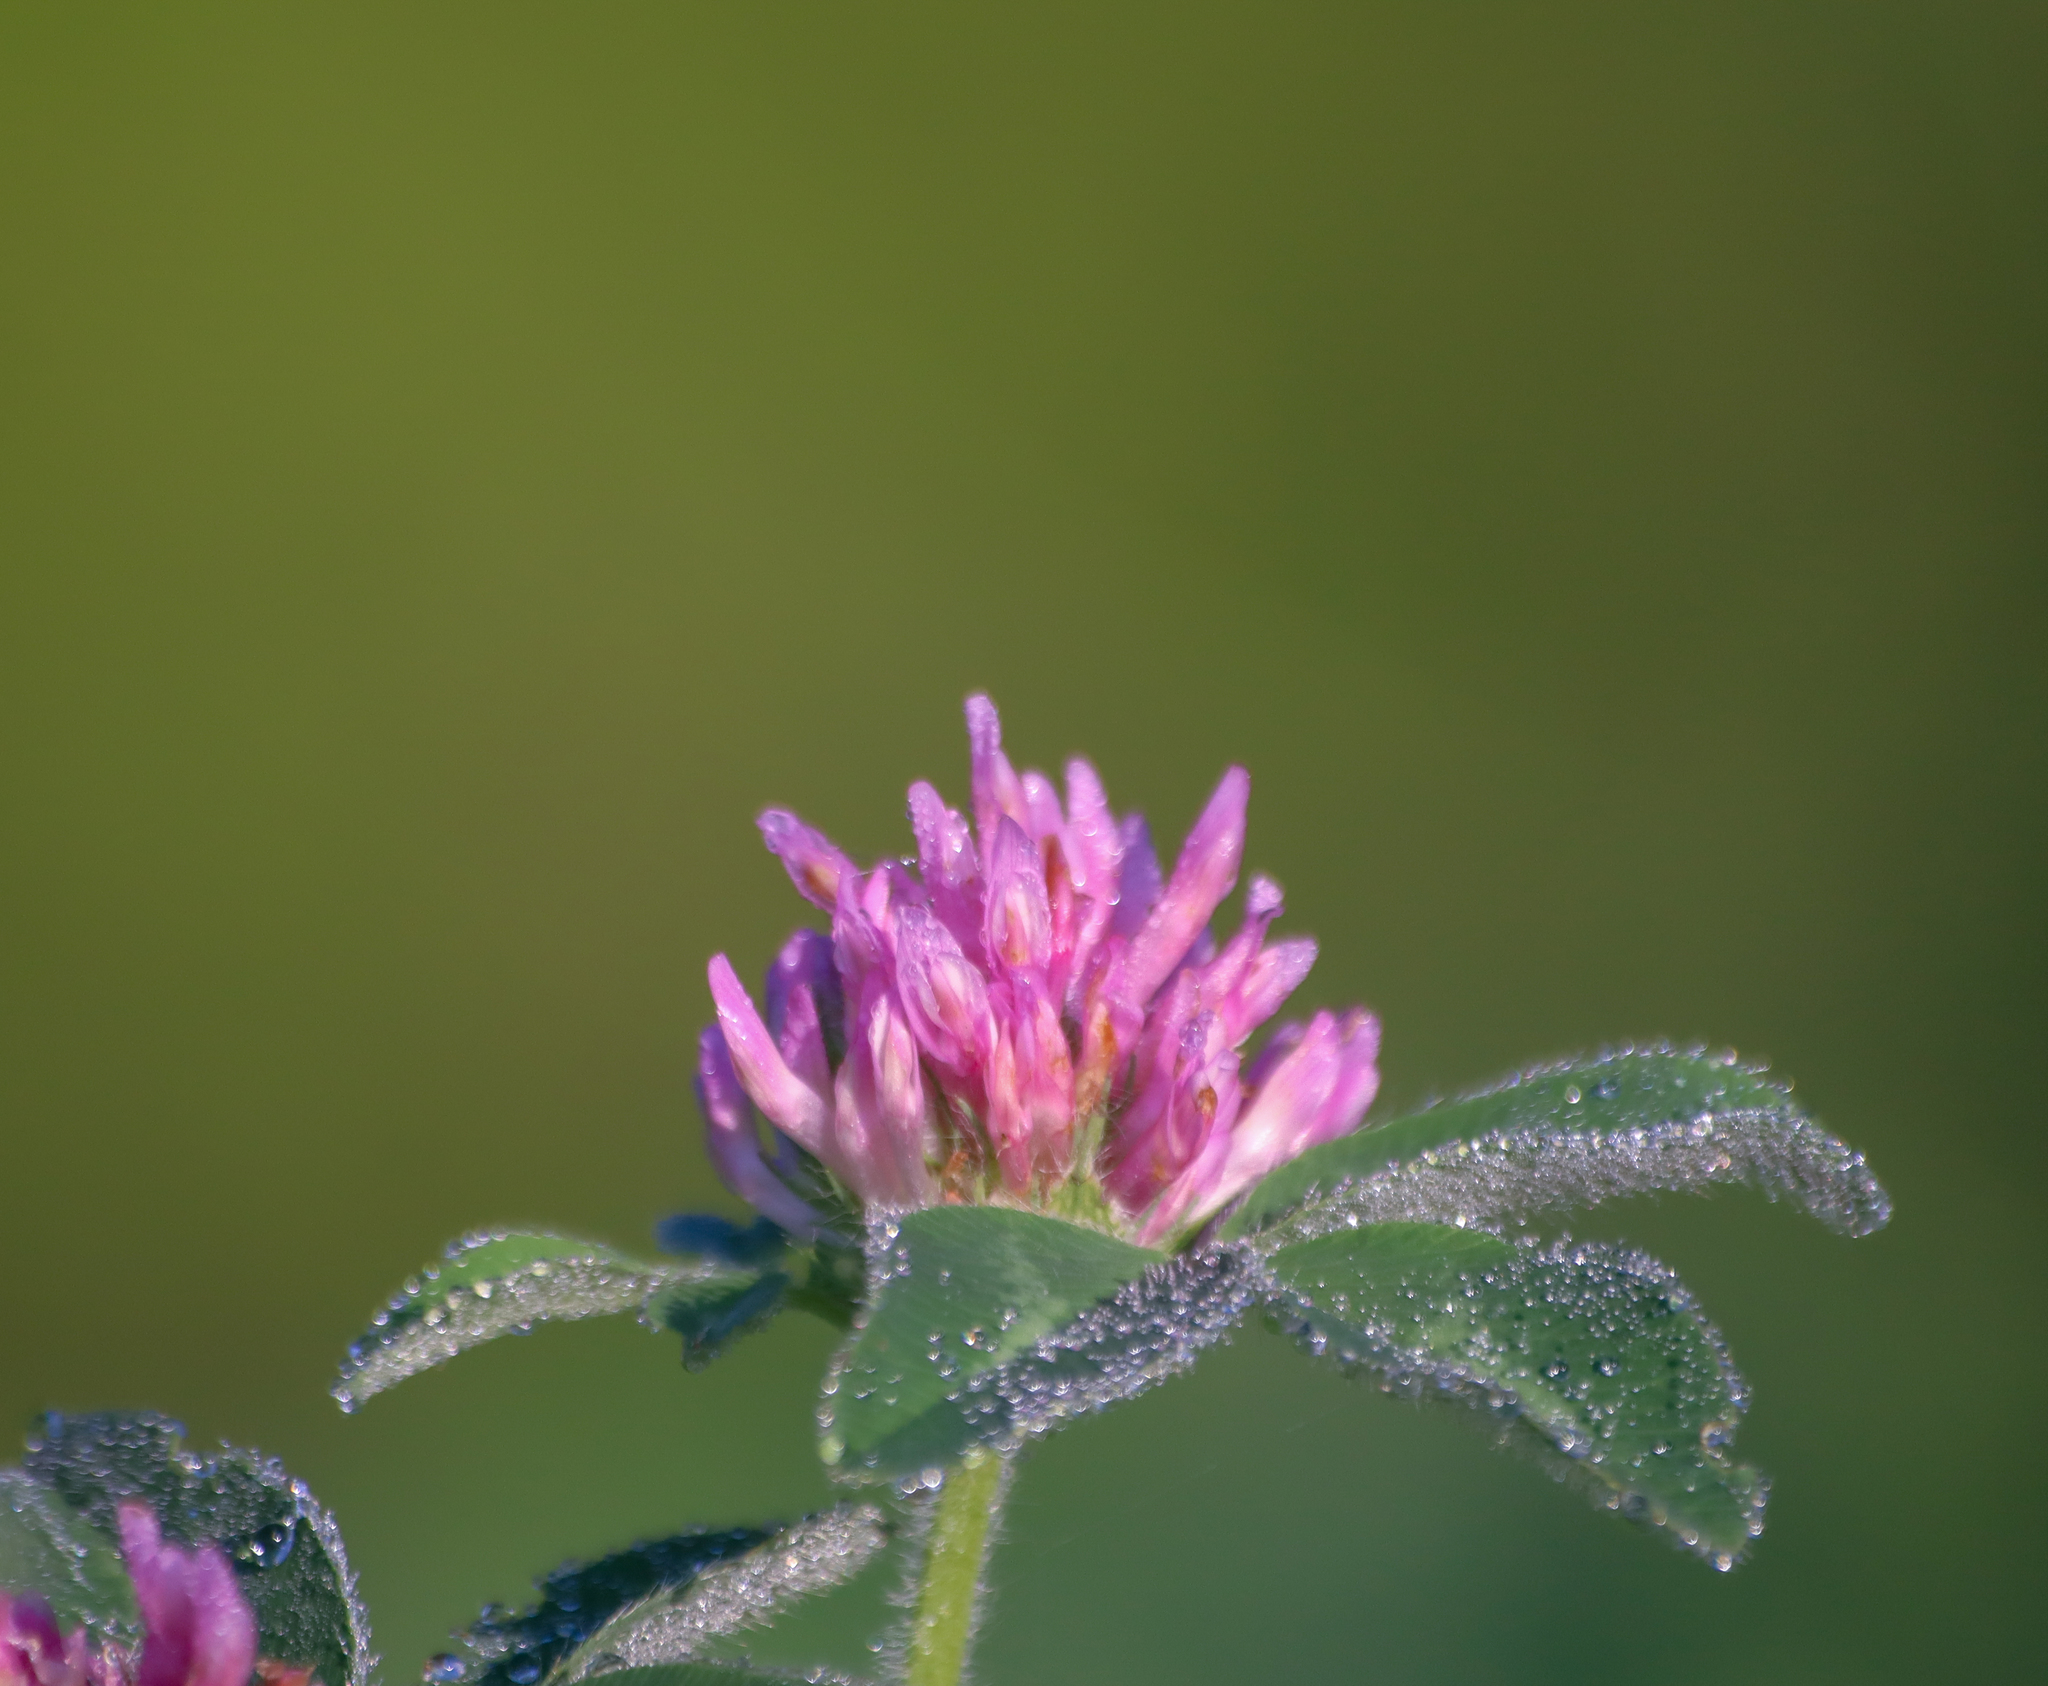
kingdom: Plantae
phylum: Tracheophyta
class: Magnoliopsida
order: Fabales
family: Fabaceae
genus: Trifolium
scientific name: Trifolium pratense
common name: Red clover
